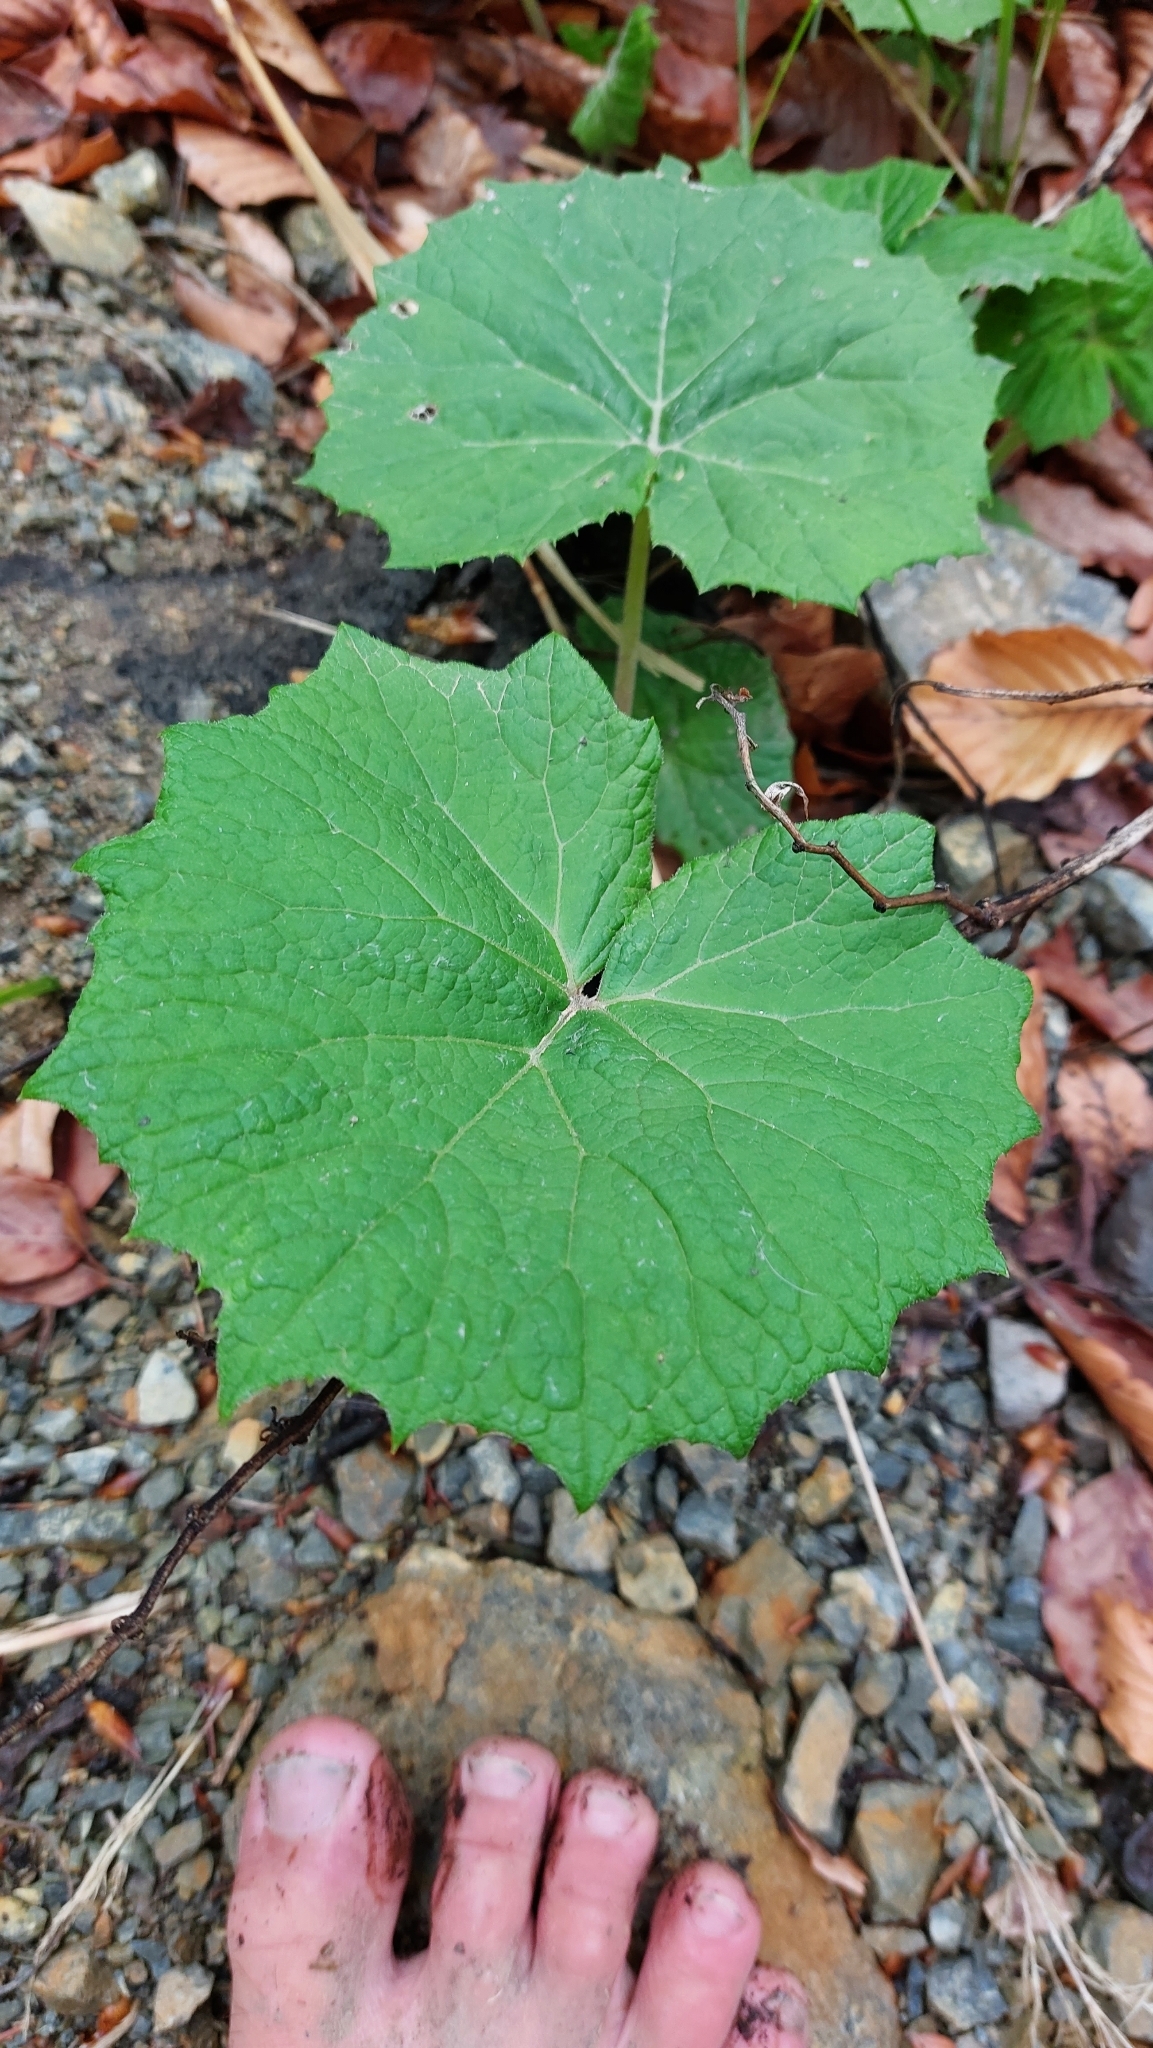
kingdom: Plantae
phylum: Tracheophyta
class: Magnoliopsida
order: Asterales
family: Asteraceae
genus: Petasites
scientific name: Petasites albus
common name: White butterbur
